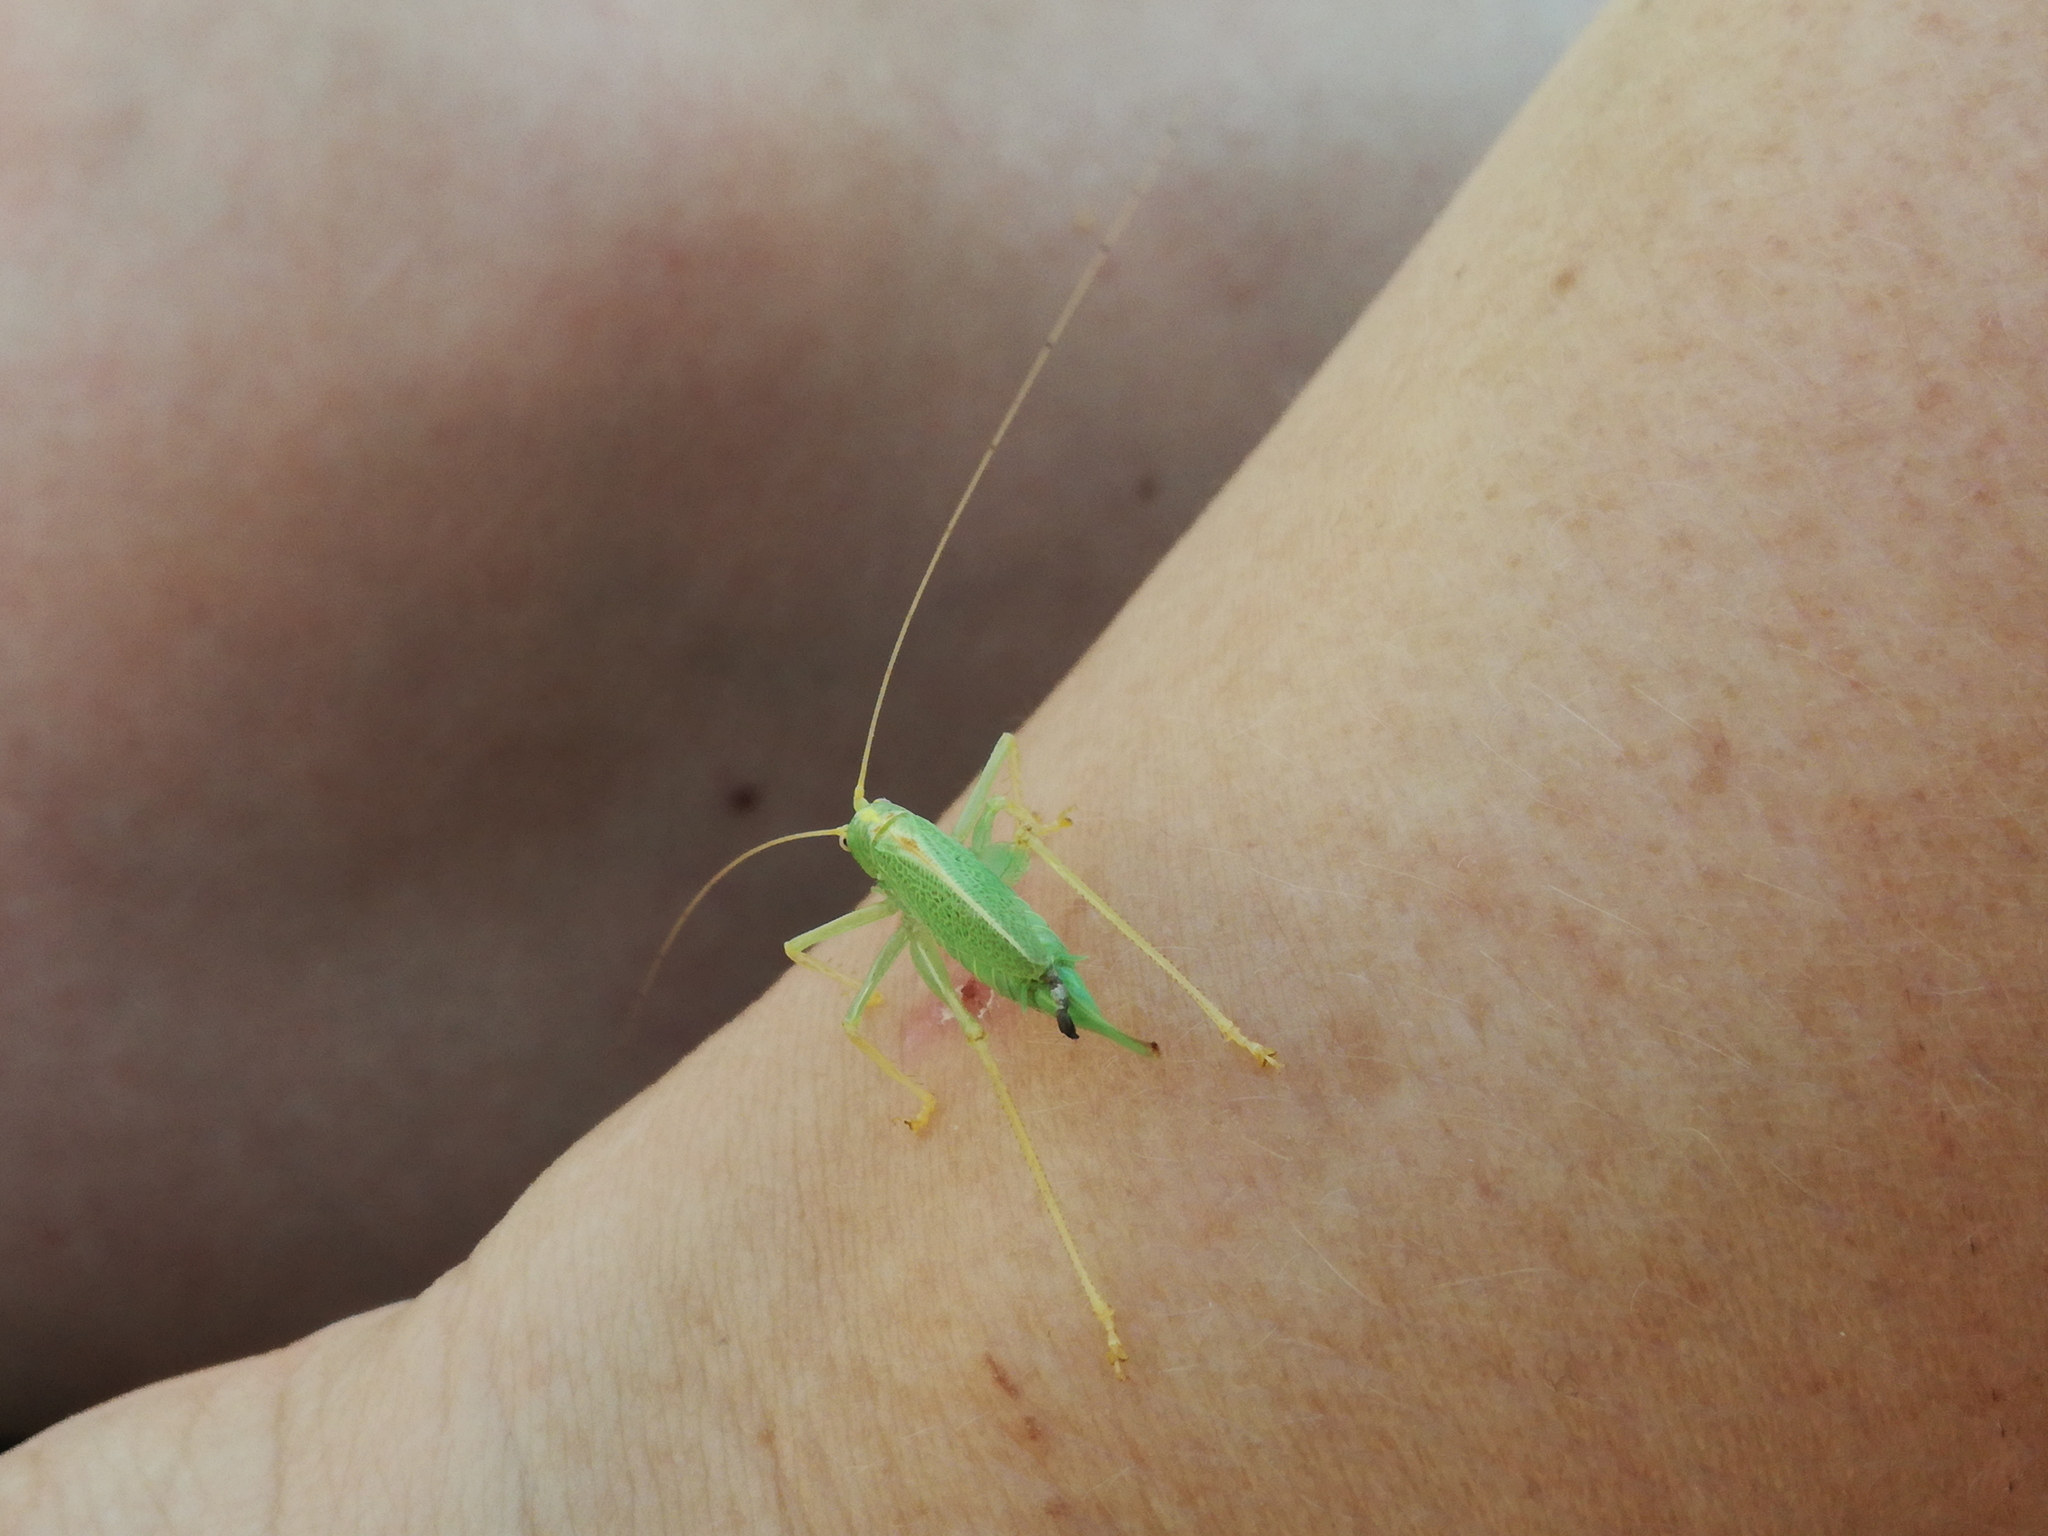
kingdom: Animalia
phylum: Arthropoda
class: Insecta
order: Orthoptera
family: Tettigoniidae
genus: Meconema
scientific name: Meconema thalassinum
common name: Oak bush-cricket
